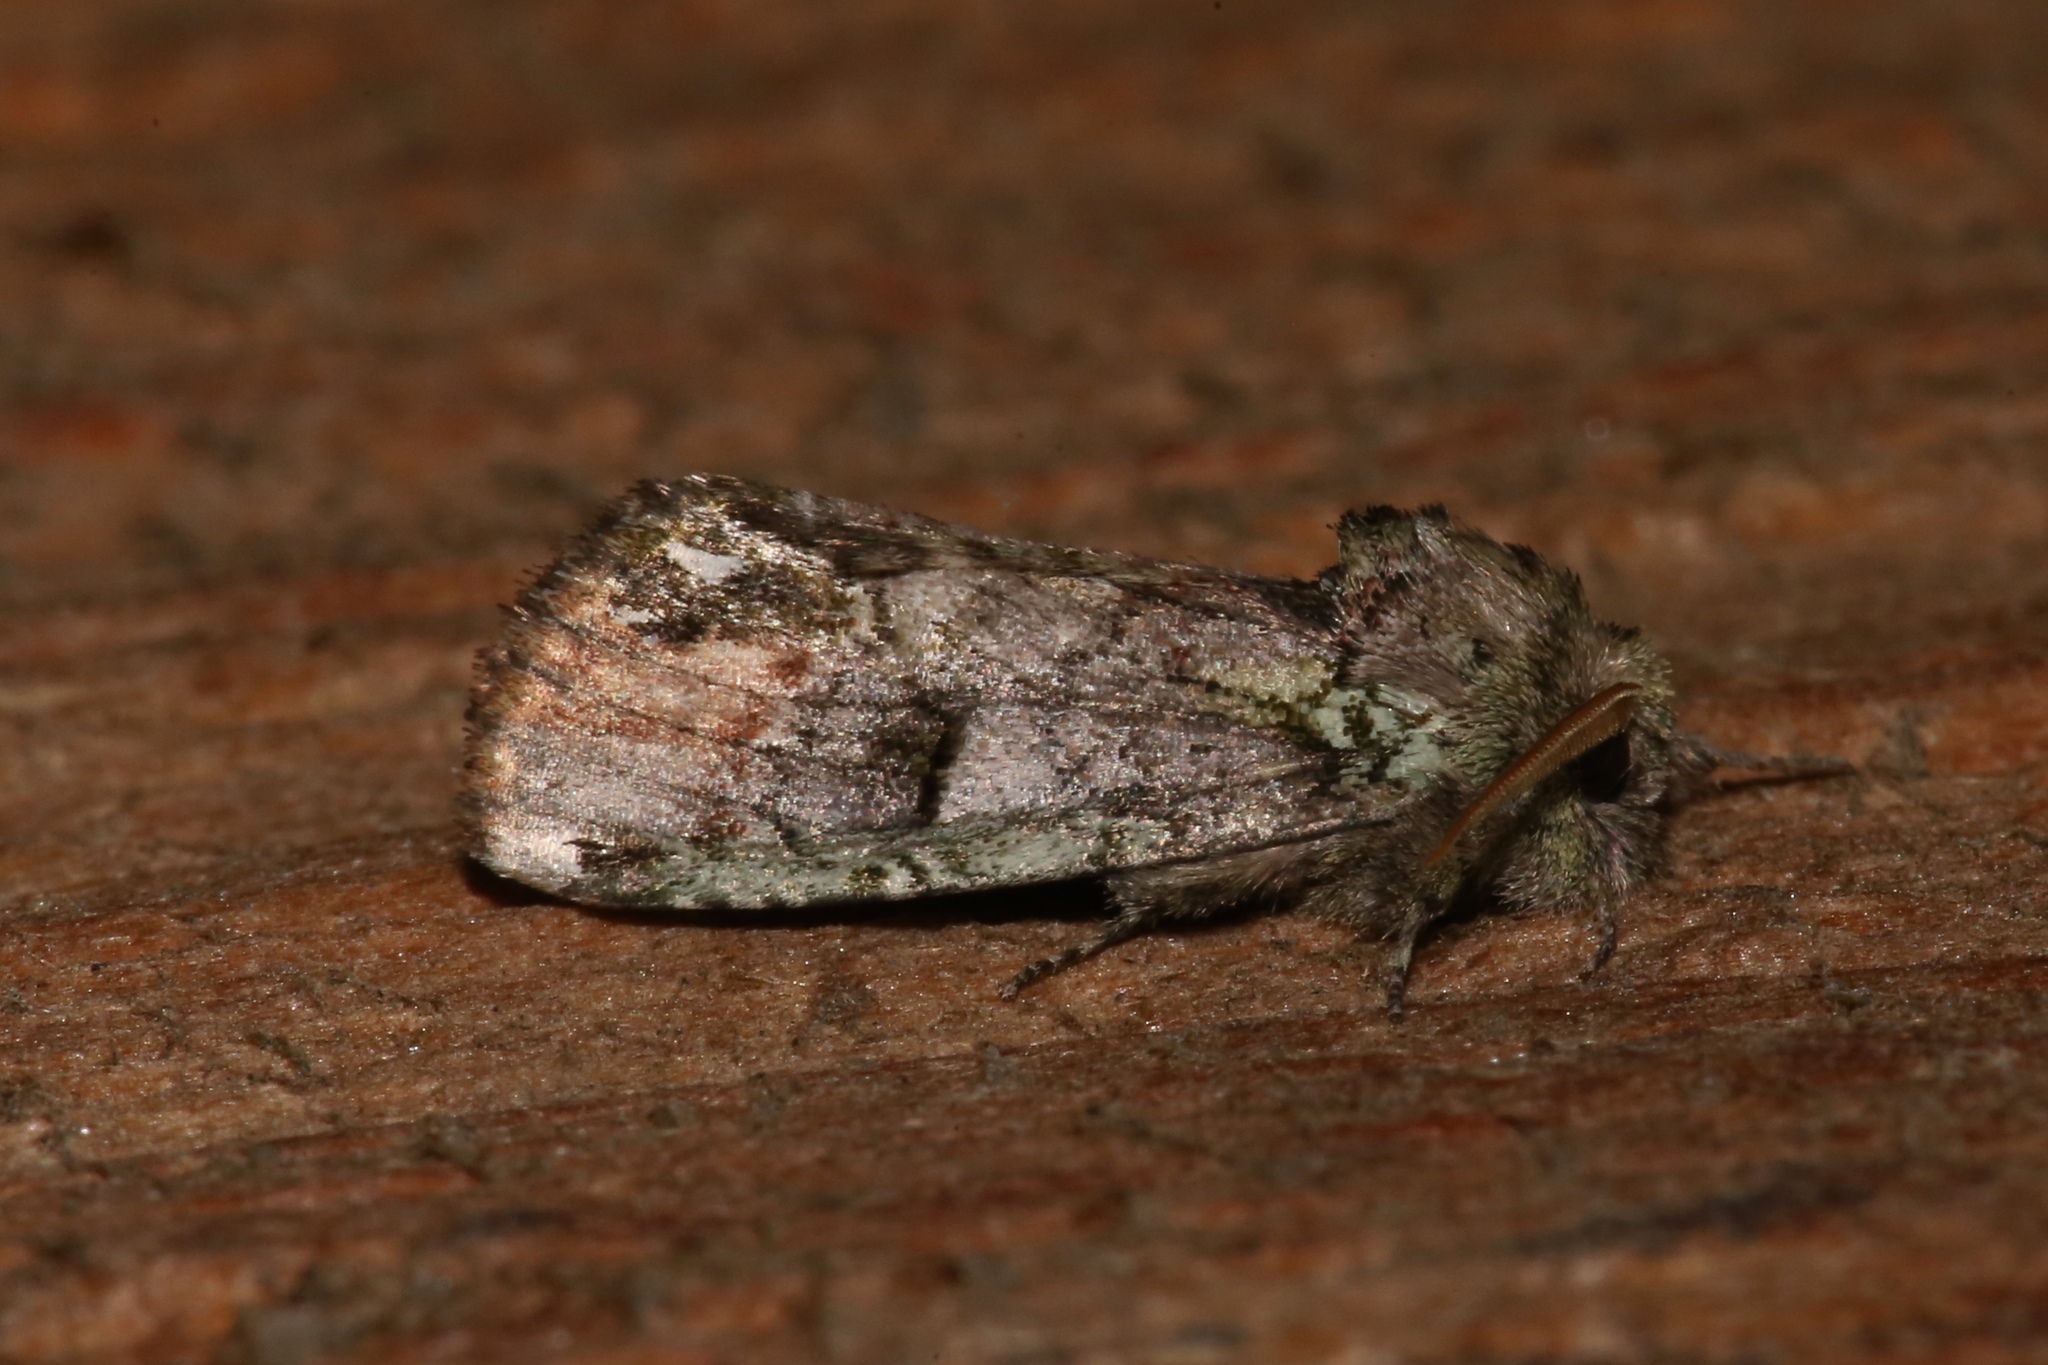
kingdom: Animalia
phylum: Arthropoda
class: Insecta
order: Lepidoptera
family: Notodontidae
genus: Schizura
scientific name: Schizura
